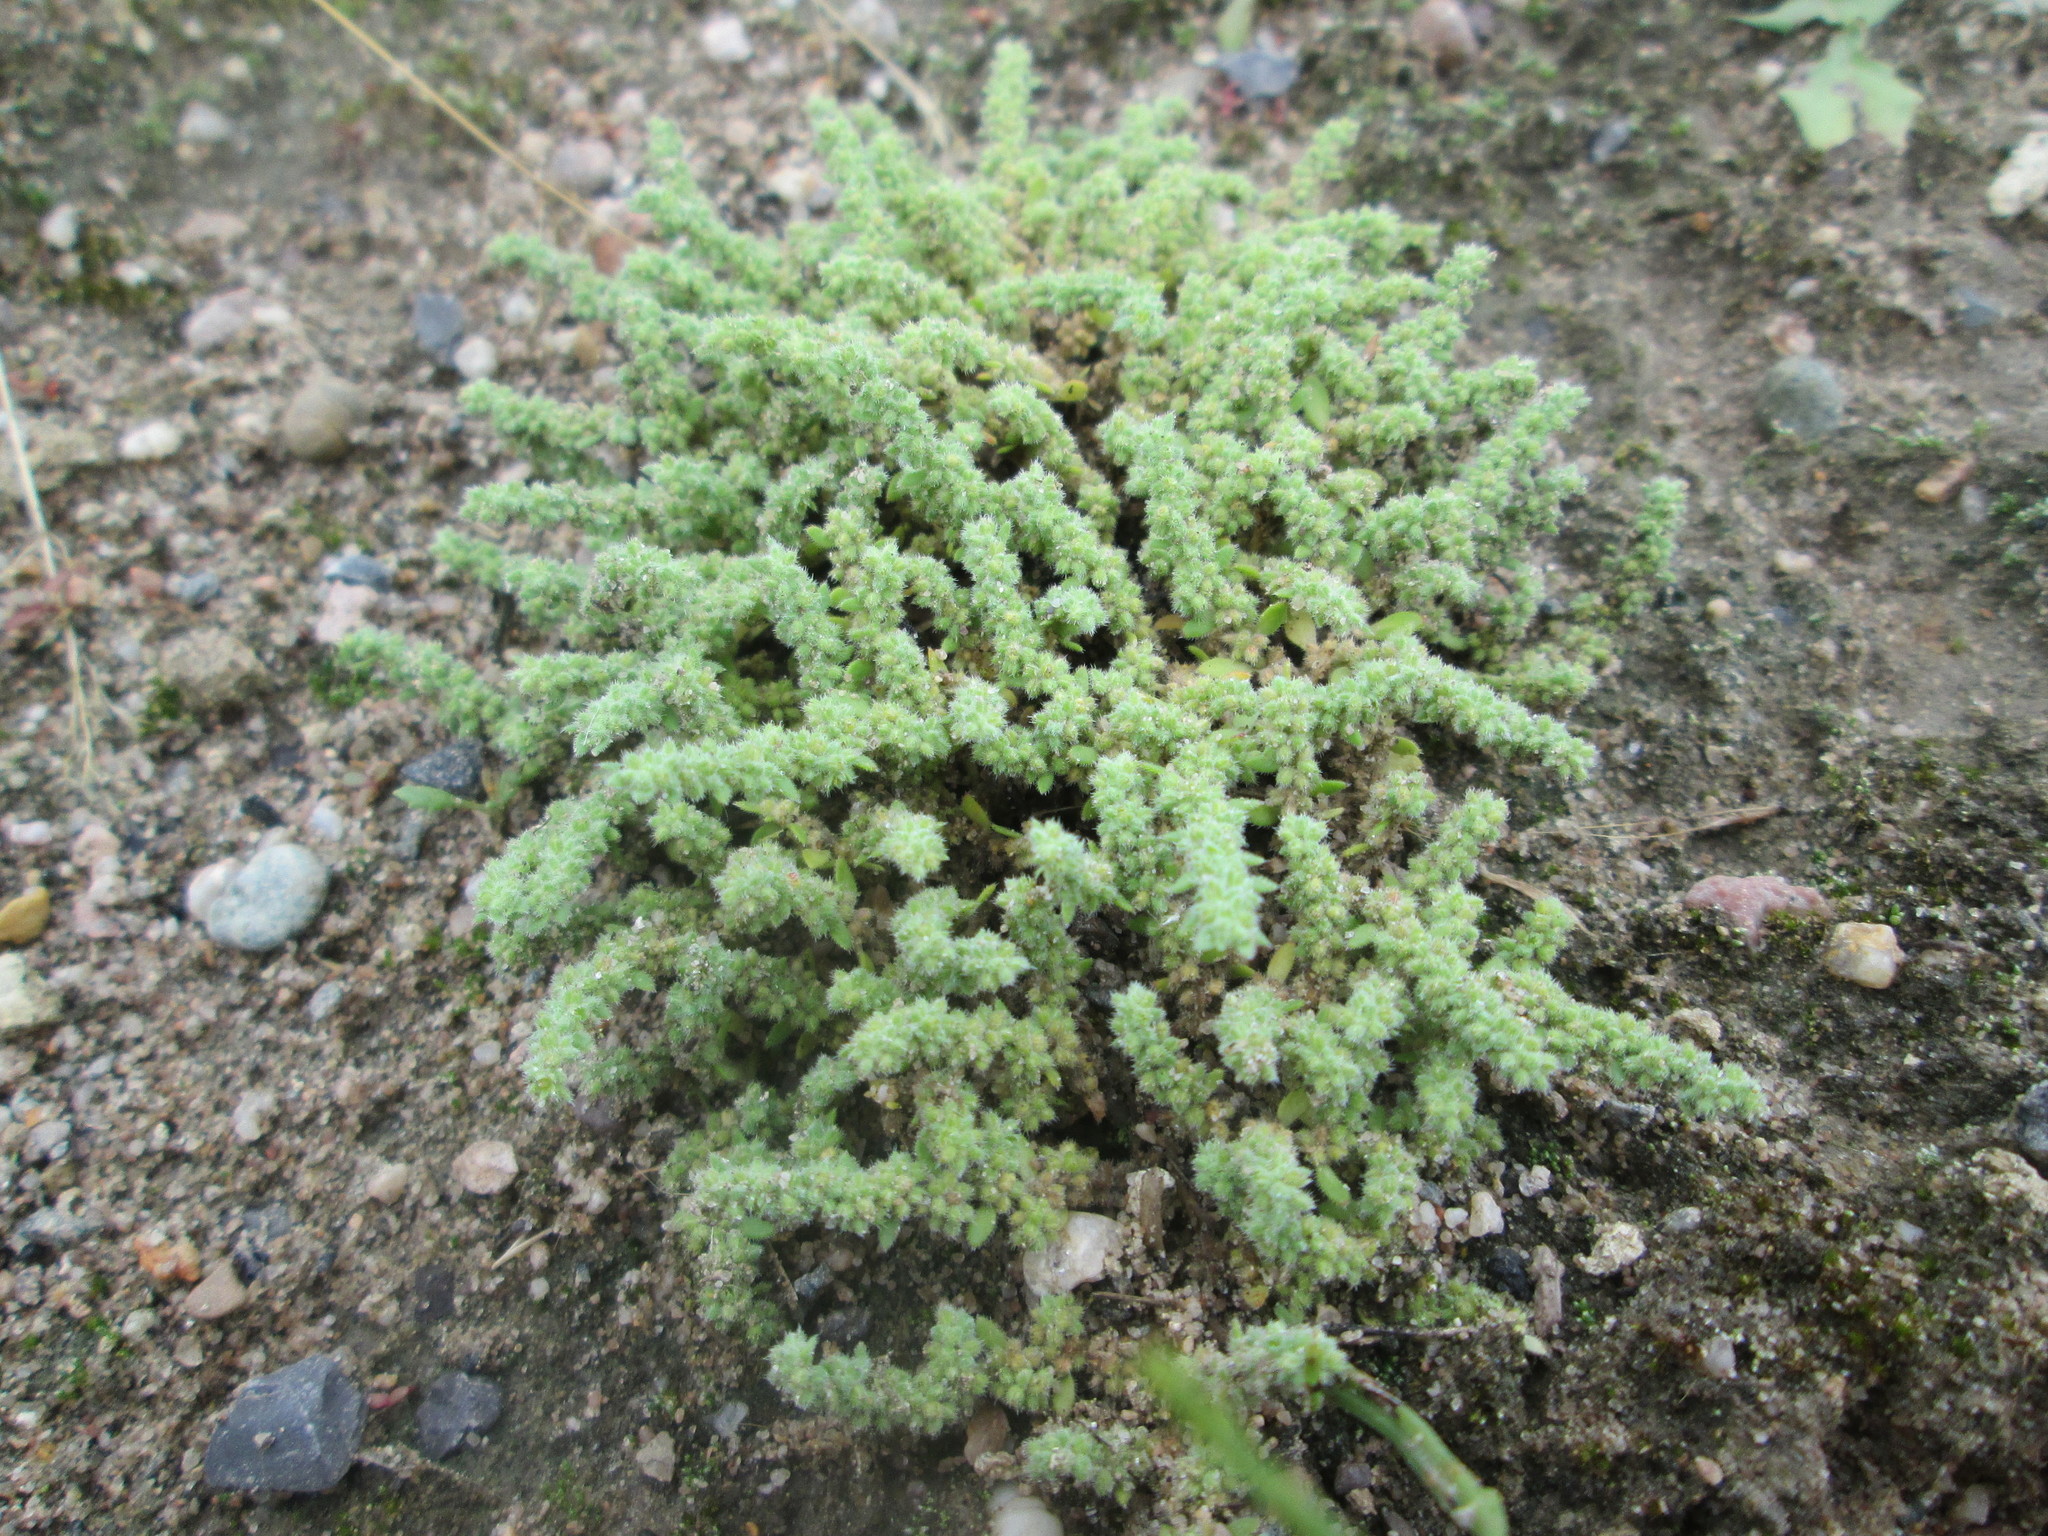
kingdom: Plantae
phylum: Tracheophyta
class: Magnoliopsida
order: Caryophyllales
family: Caryophyllaceae
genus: Herniaria
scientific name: Herniaria hirsuta
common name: Hairy rupturewort
